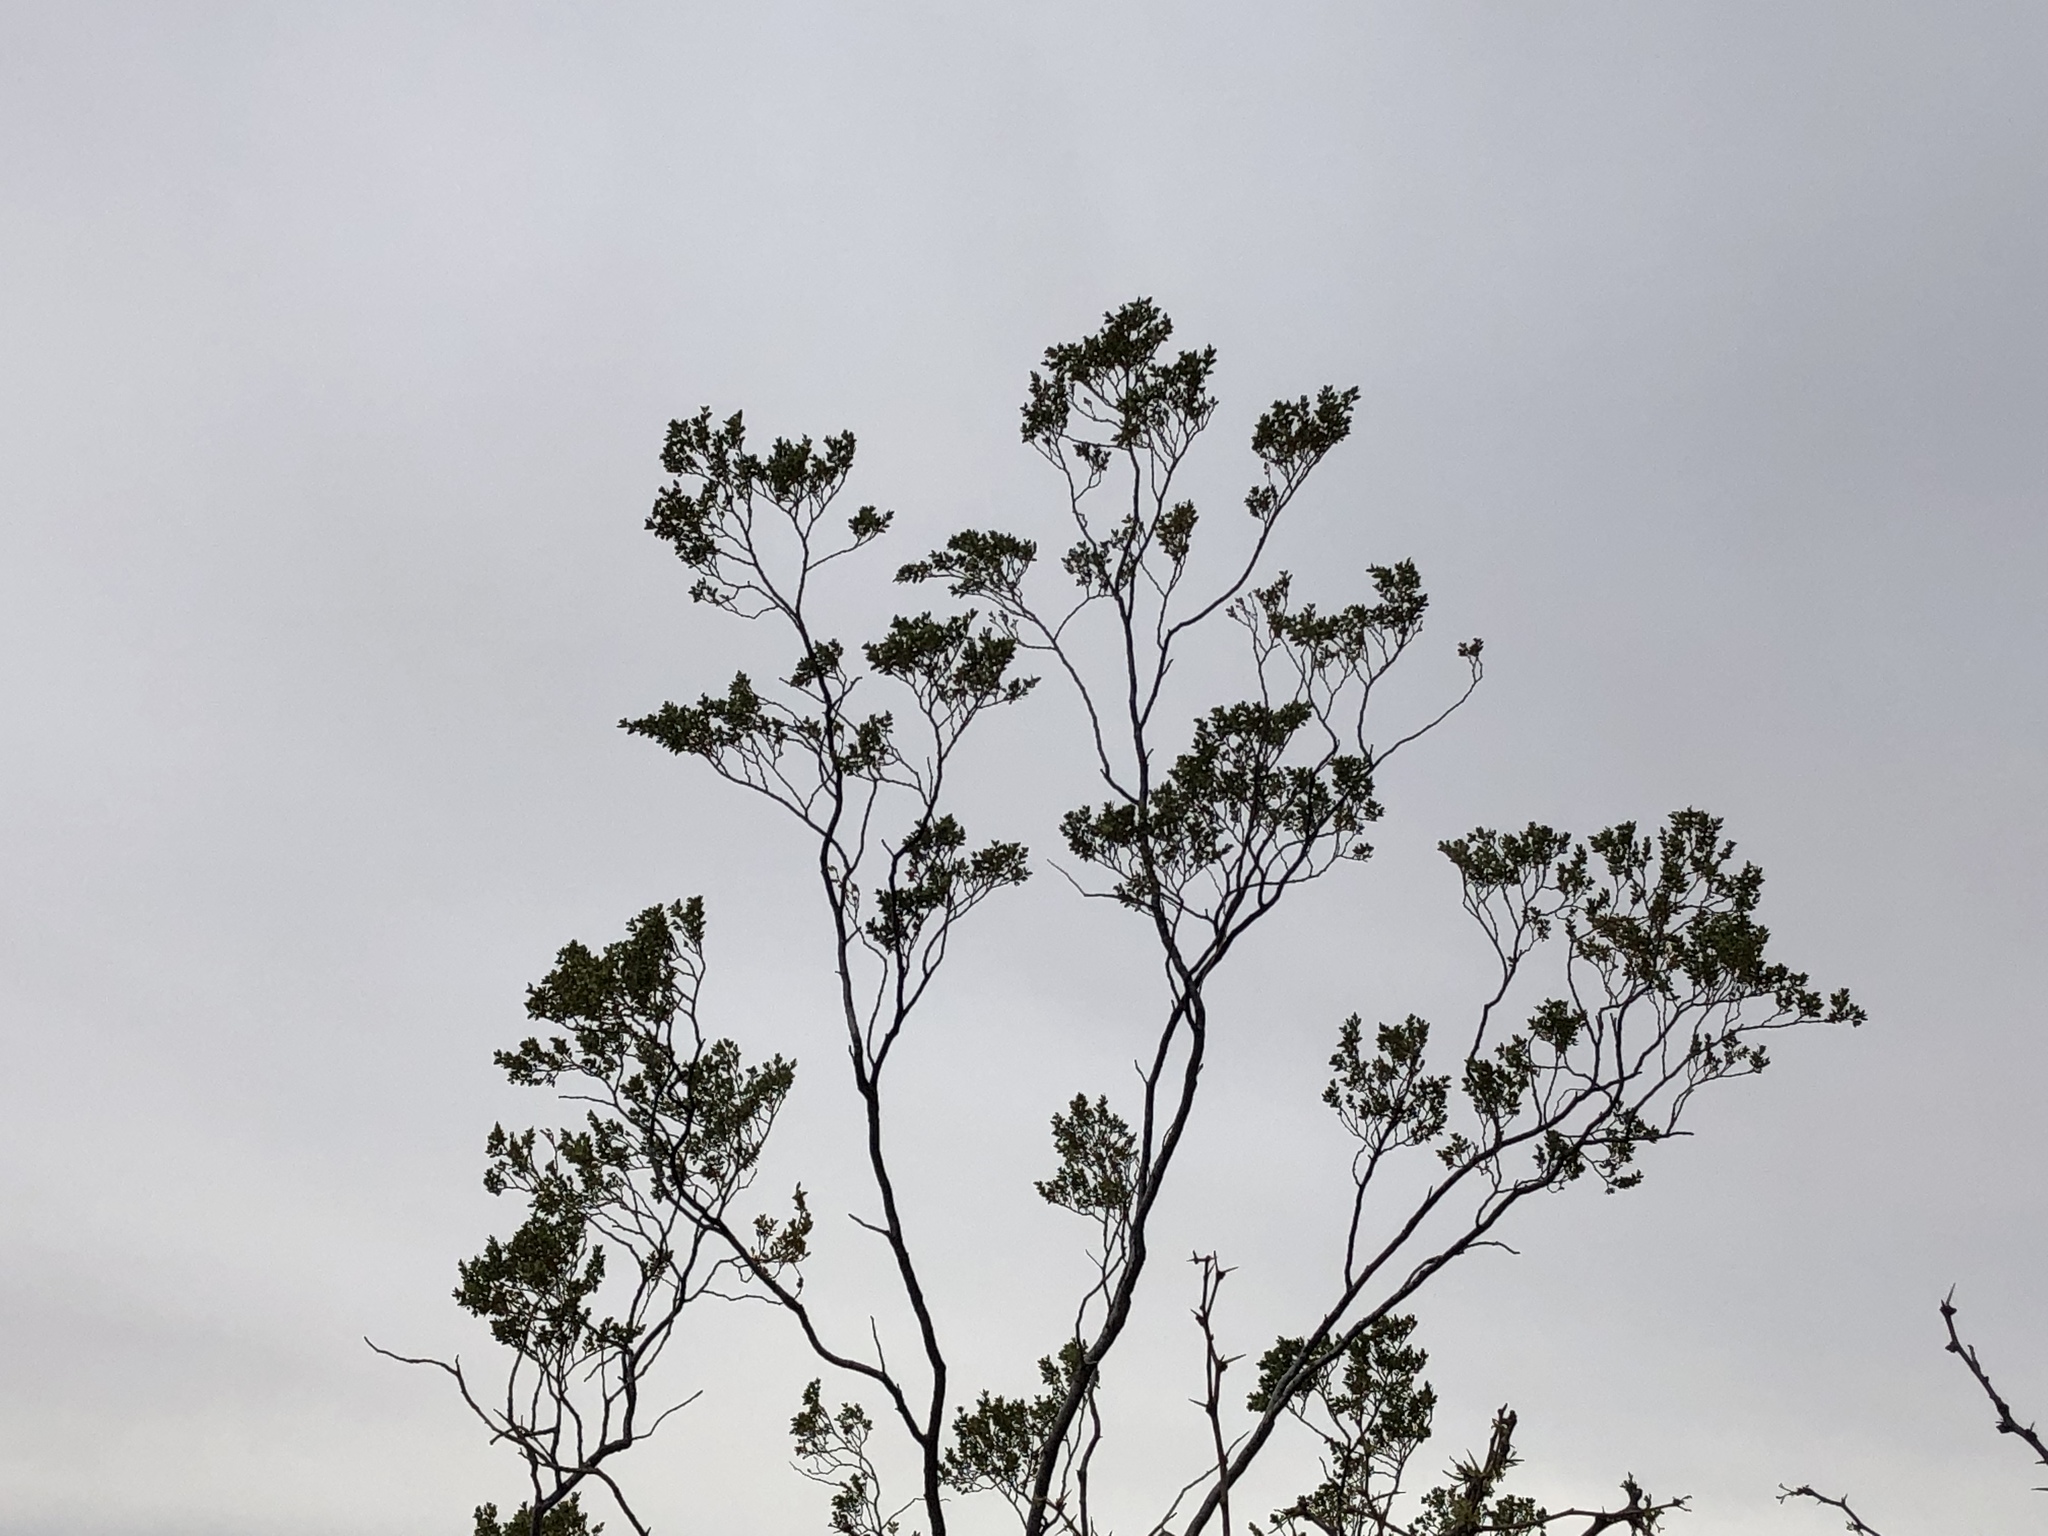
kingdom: Plantae
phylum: Tracheophyta
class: Magnoliopsida
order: Zygophyllales
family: Zygophyllaceae
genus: Larrea
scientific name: Larrea tridentata
